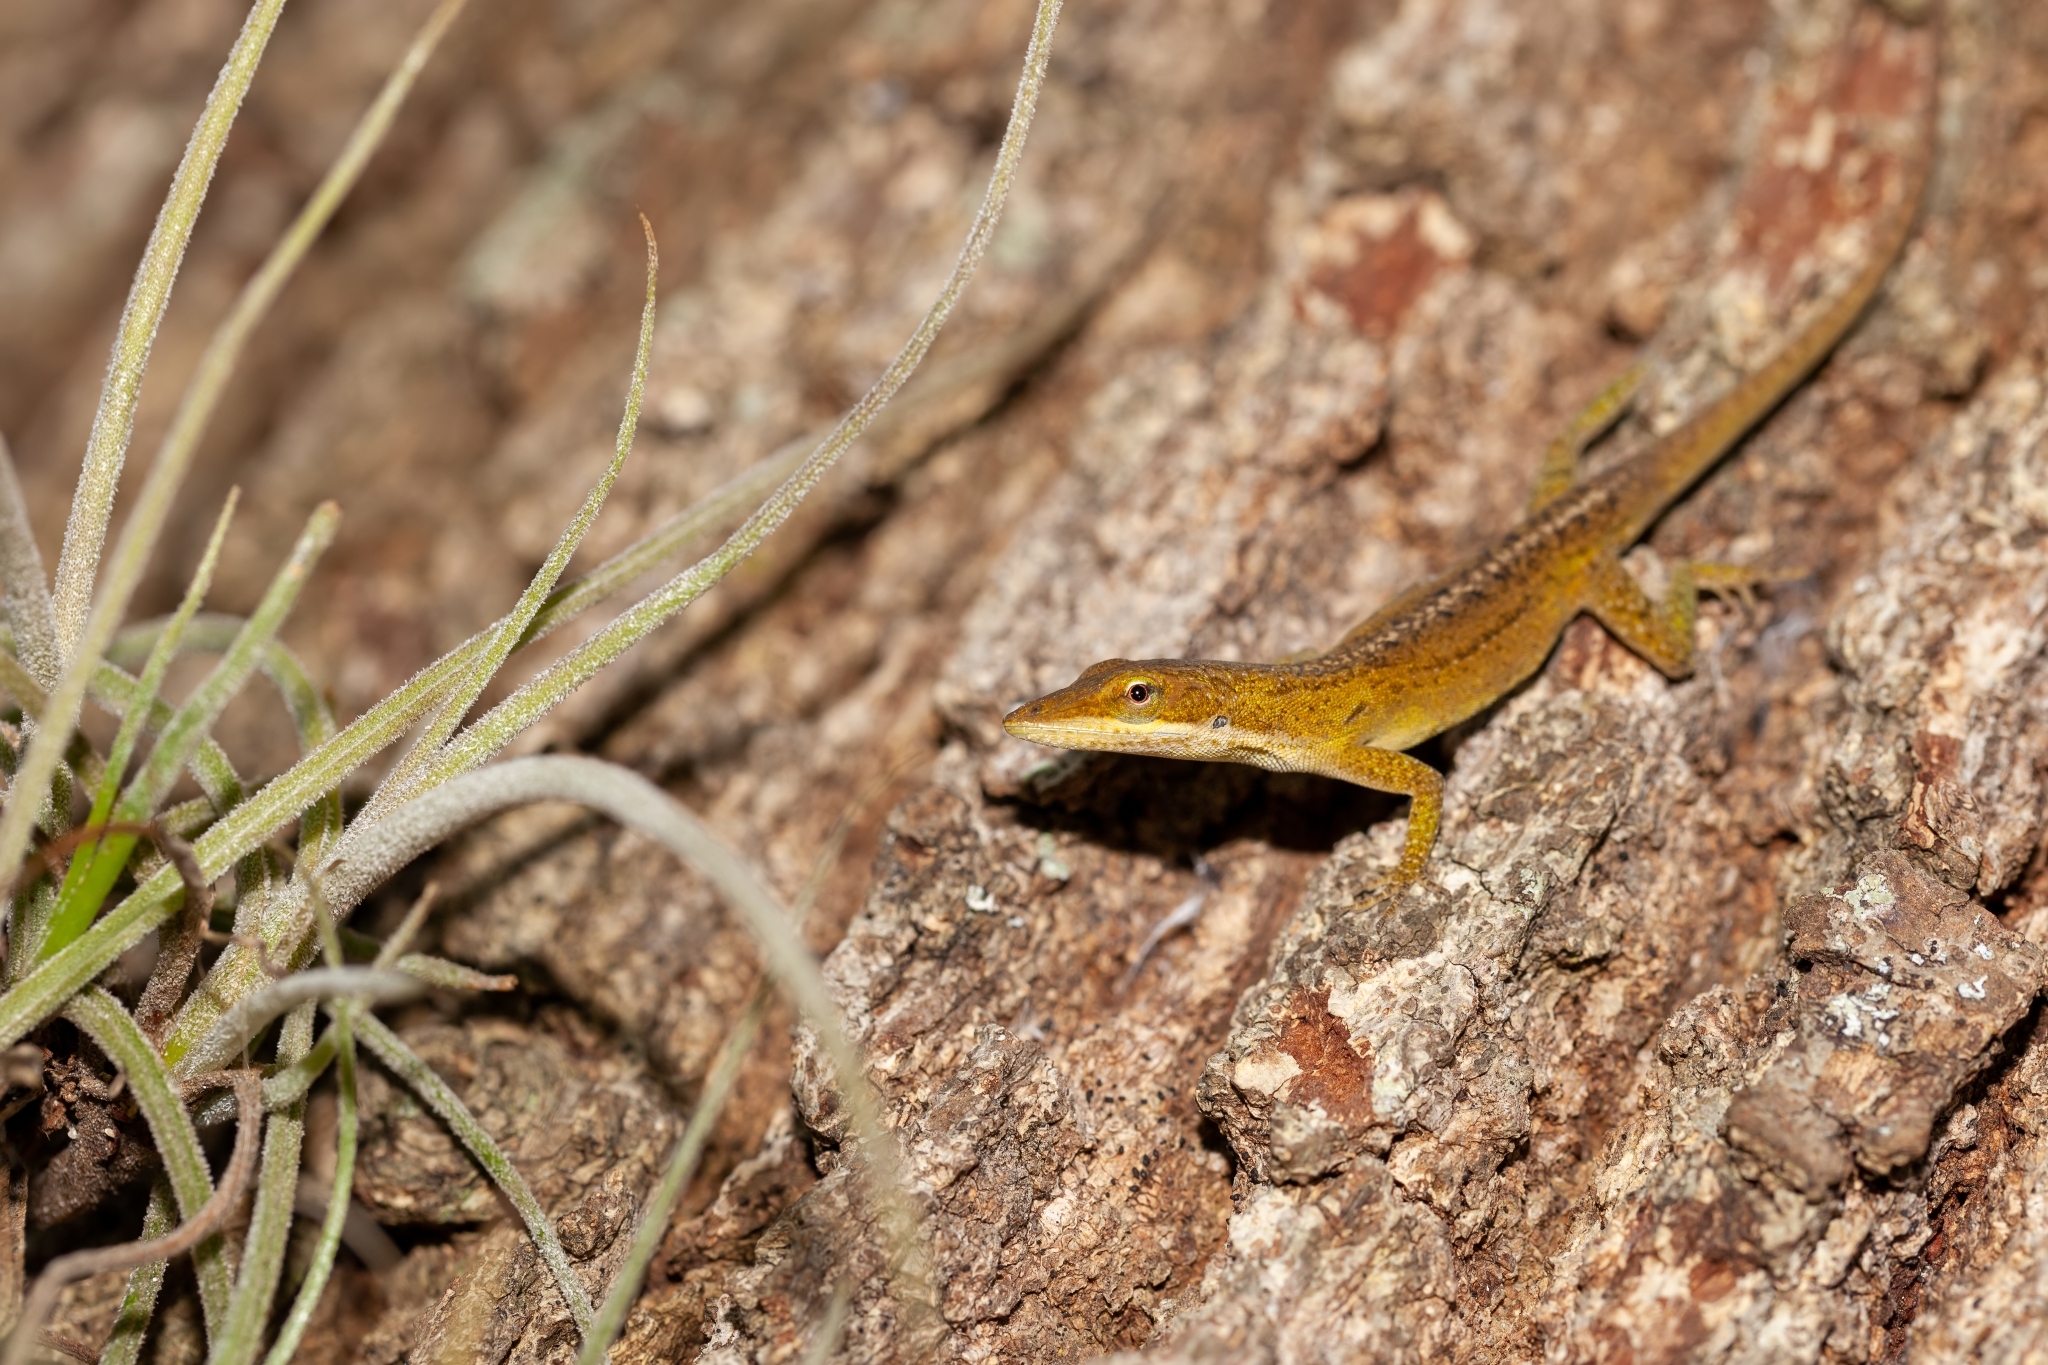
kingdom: Animalia
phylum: Chordata
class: Squamata
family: Dactyloidae
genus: Anolis
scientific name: Anolis carolinensis
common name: Green anole
